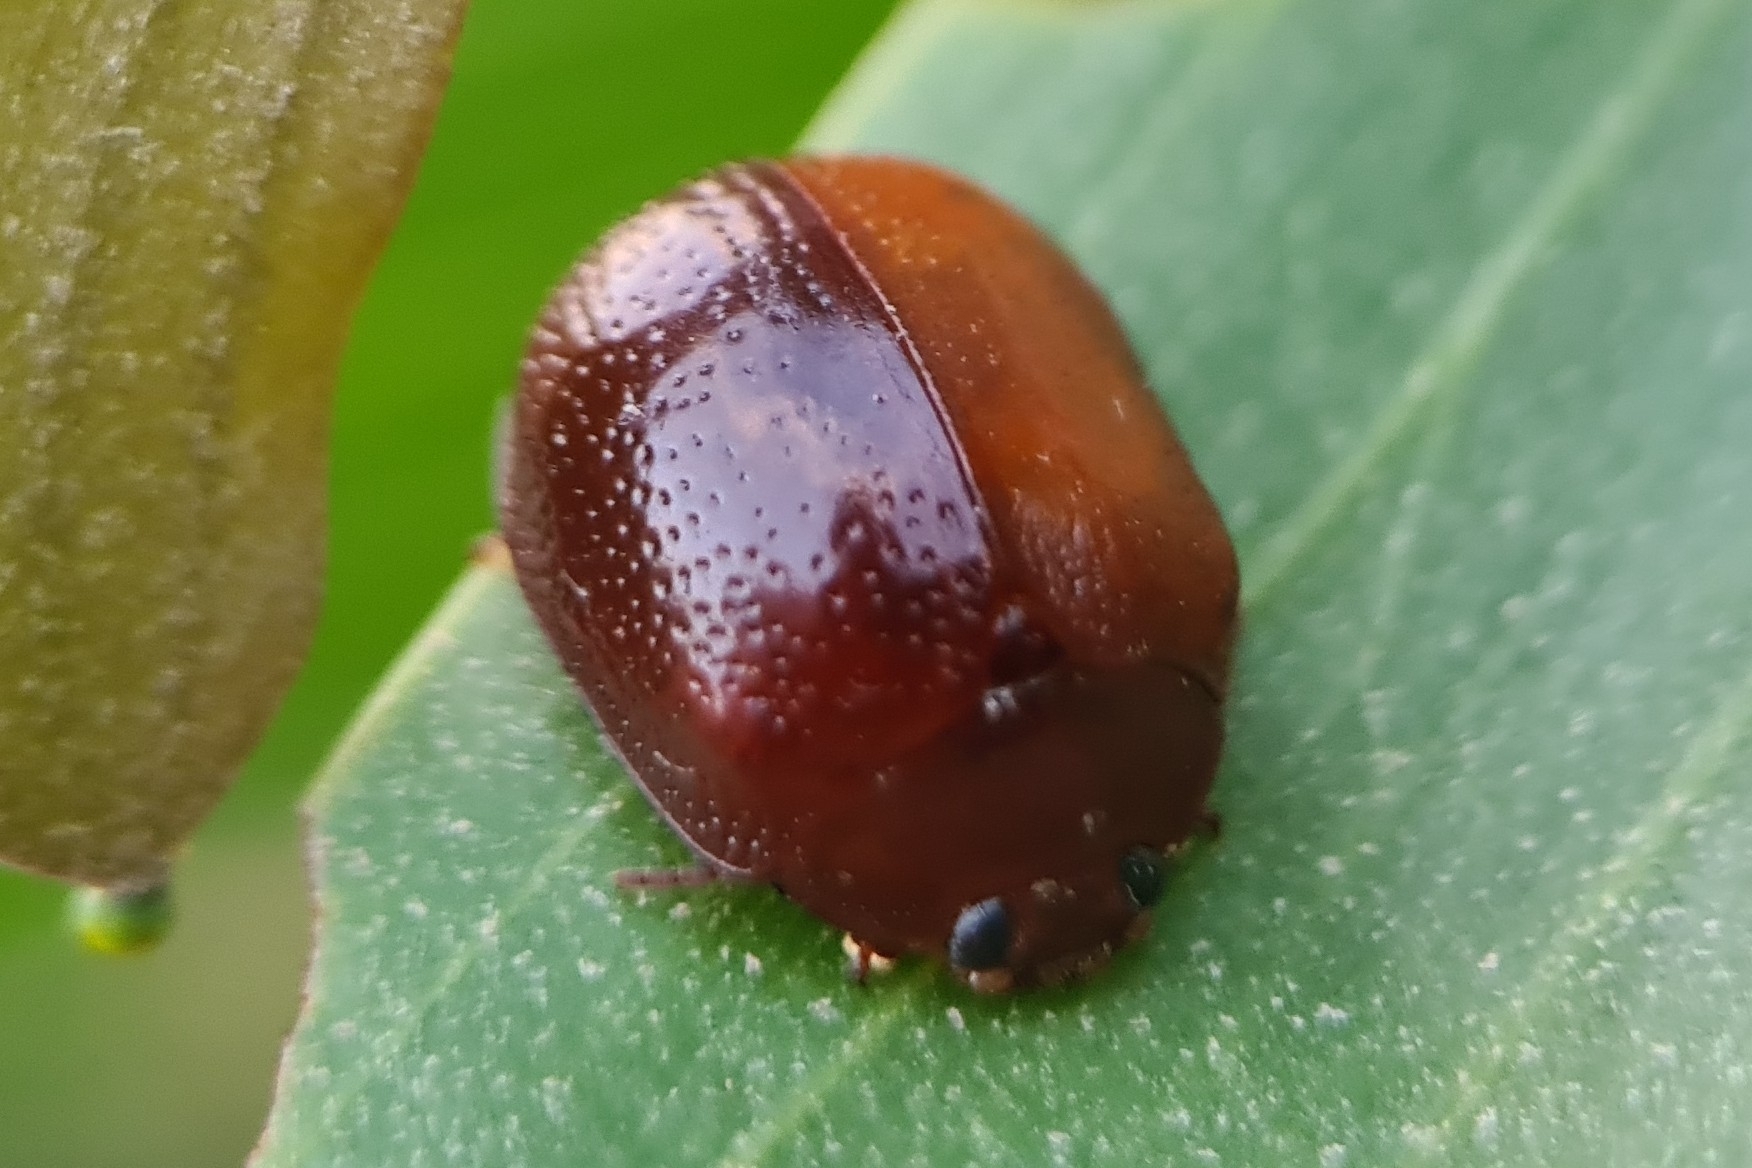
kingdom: Animalia
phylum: Arthropoda
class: Insecta
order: Coleoptera
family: Chrysomelidae
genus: Dicranosterna
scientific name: Dicranosterna
